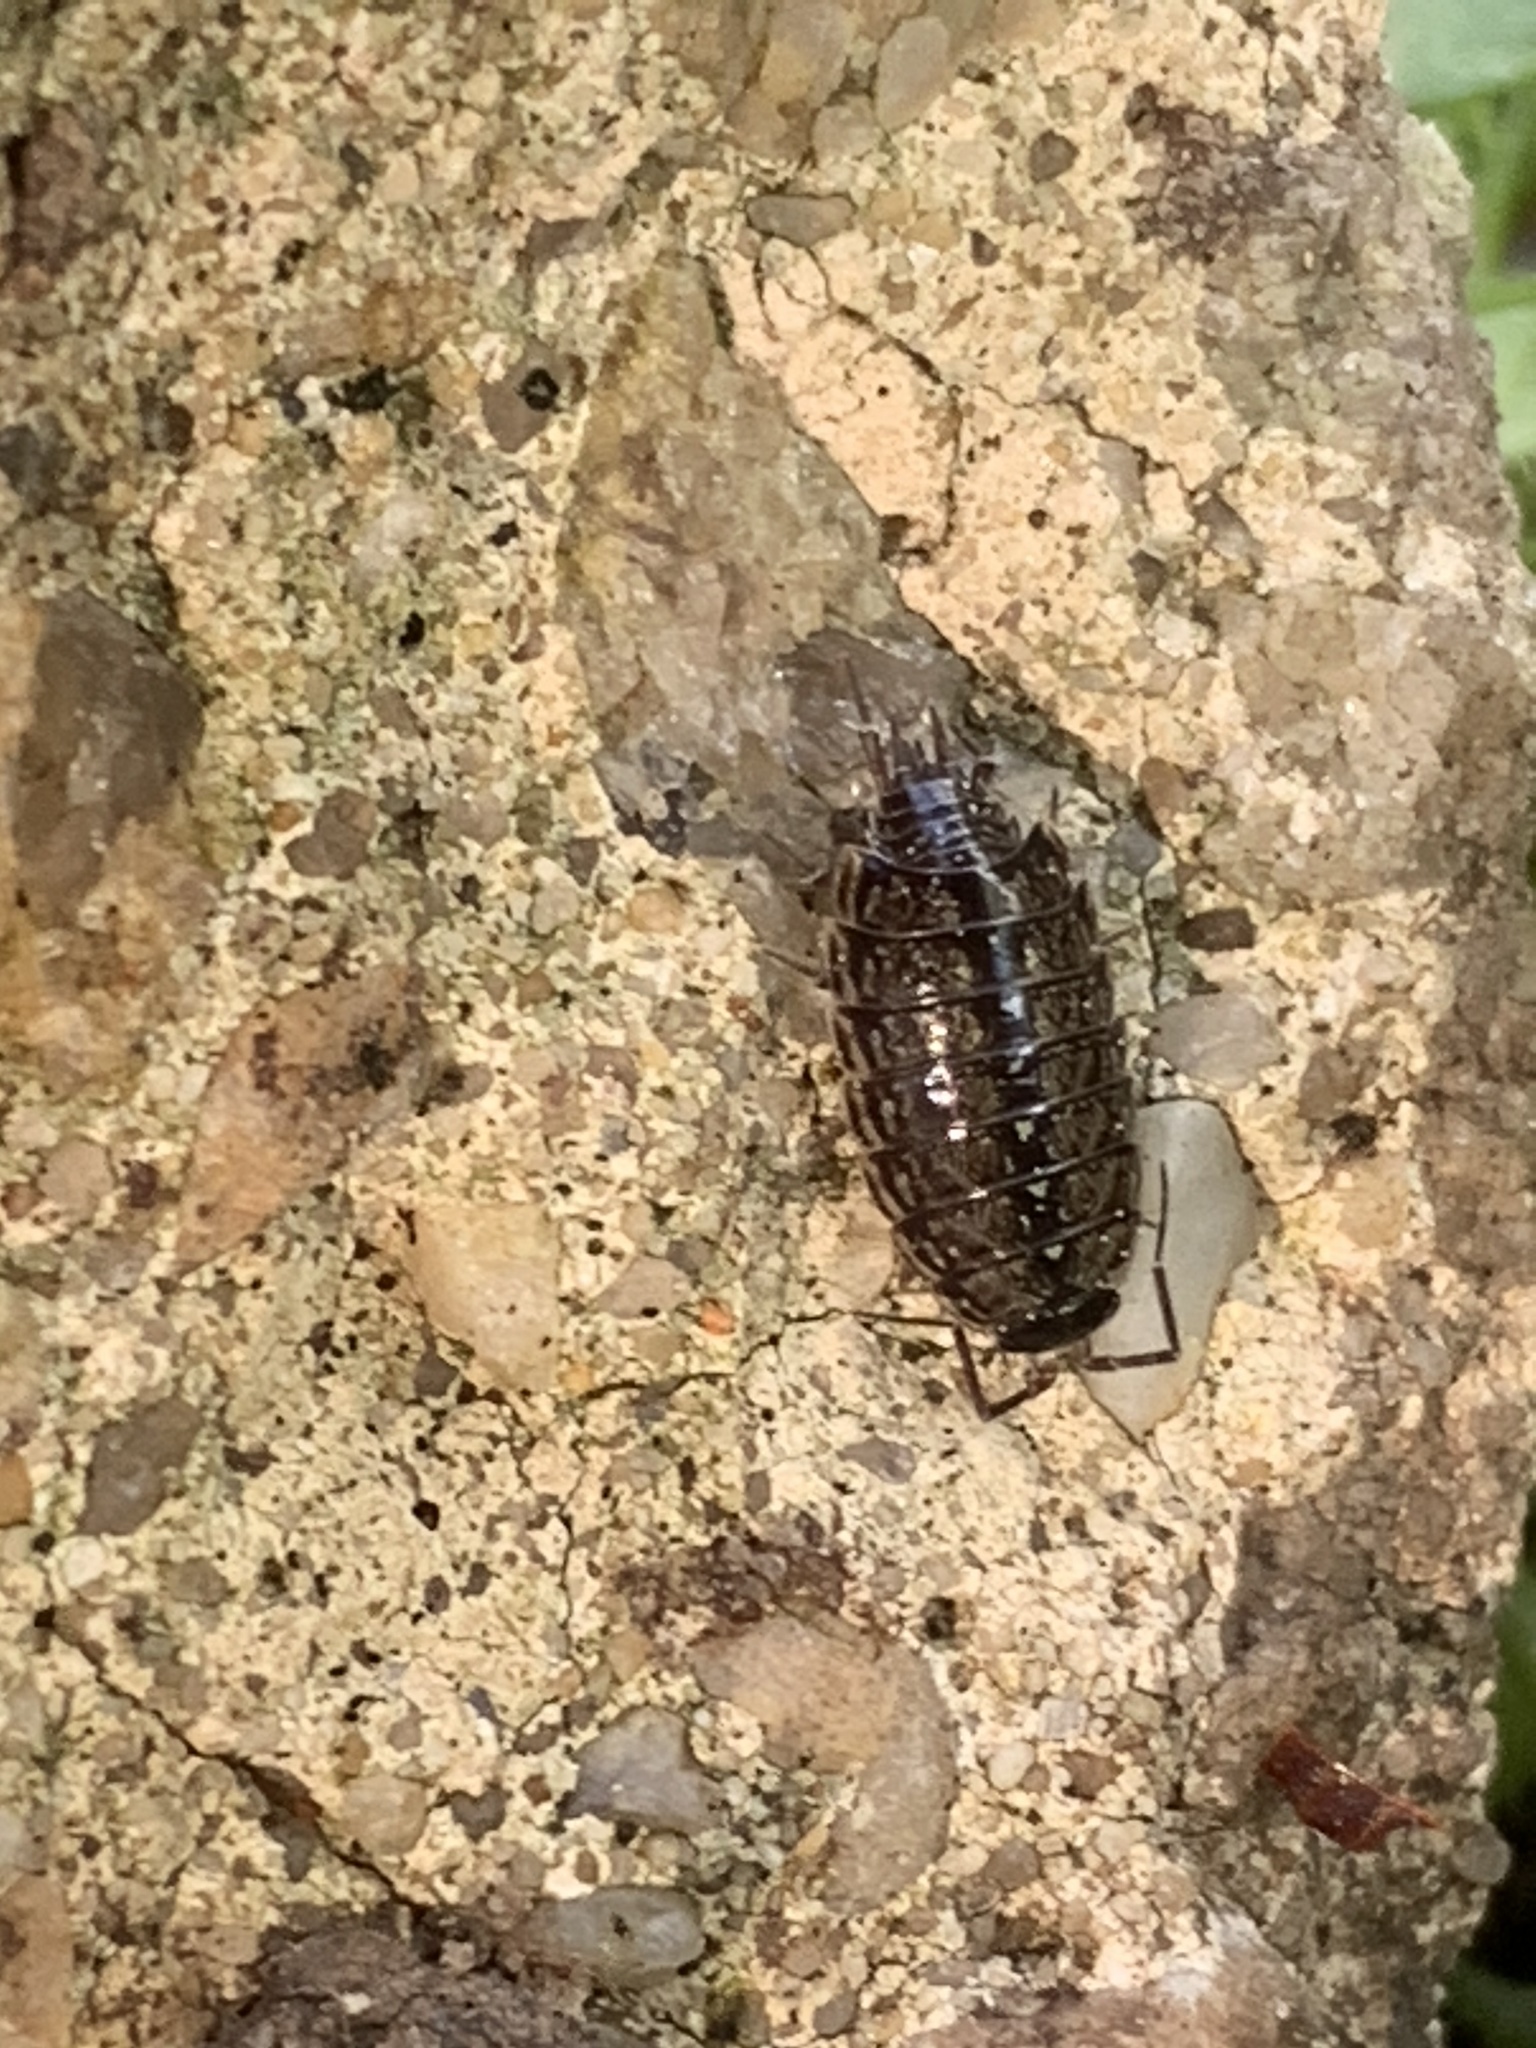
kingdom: Animalia
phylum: Arthropoda
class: Malacostraca
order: Isopoda
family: Philosciidae
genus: Philoscia
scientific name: Philoscia muscorum
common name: Common striped woodlouse
